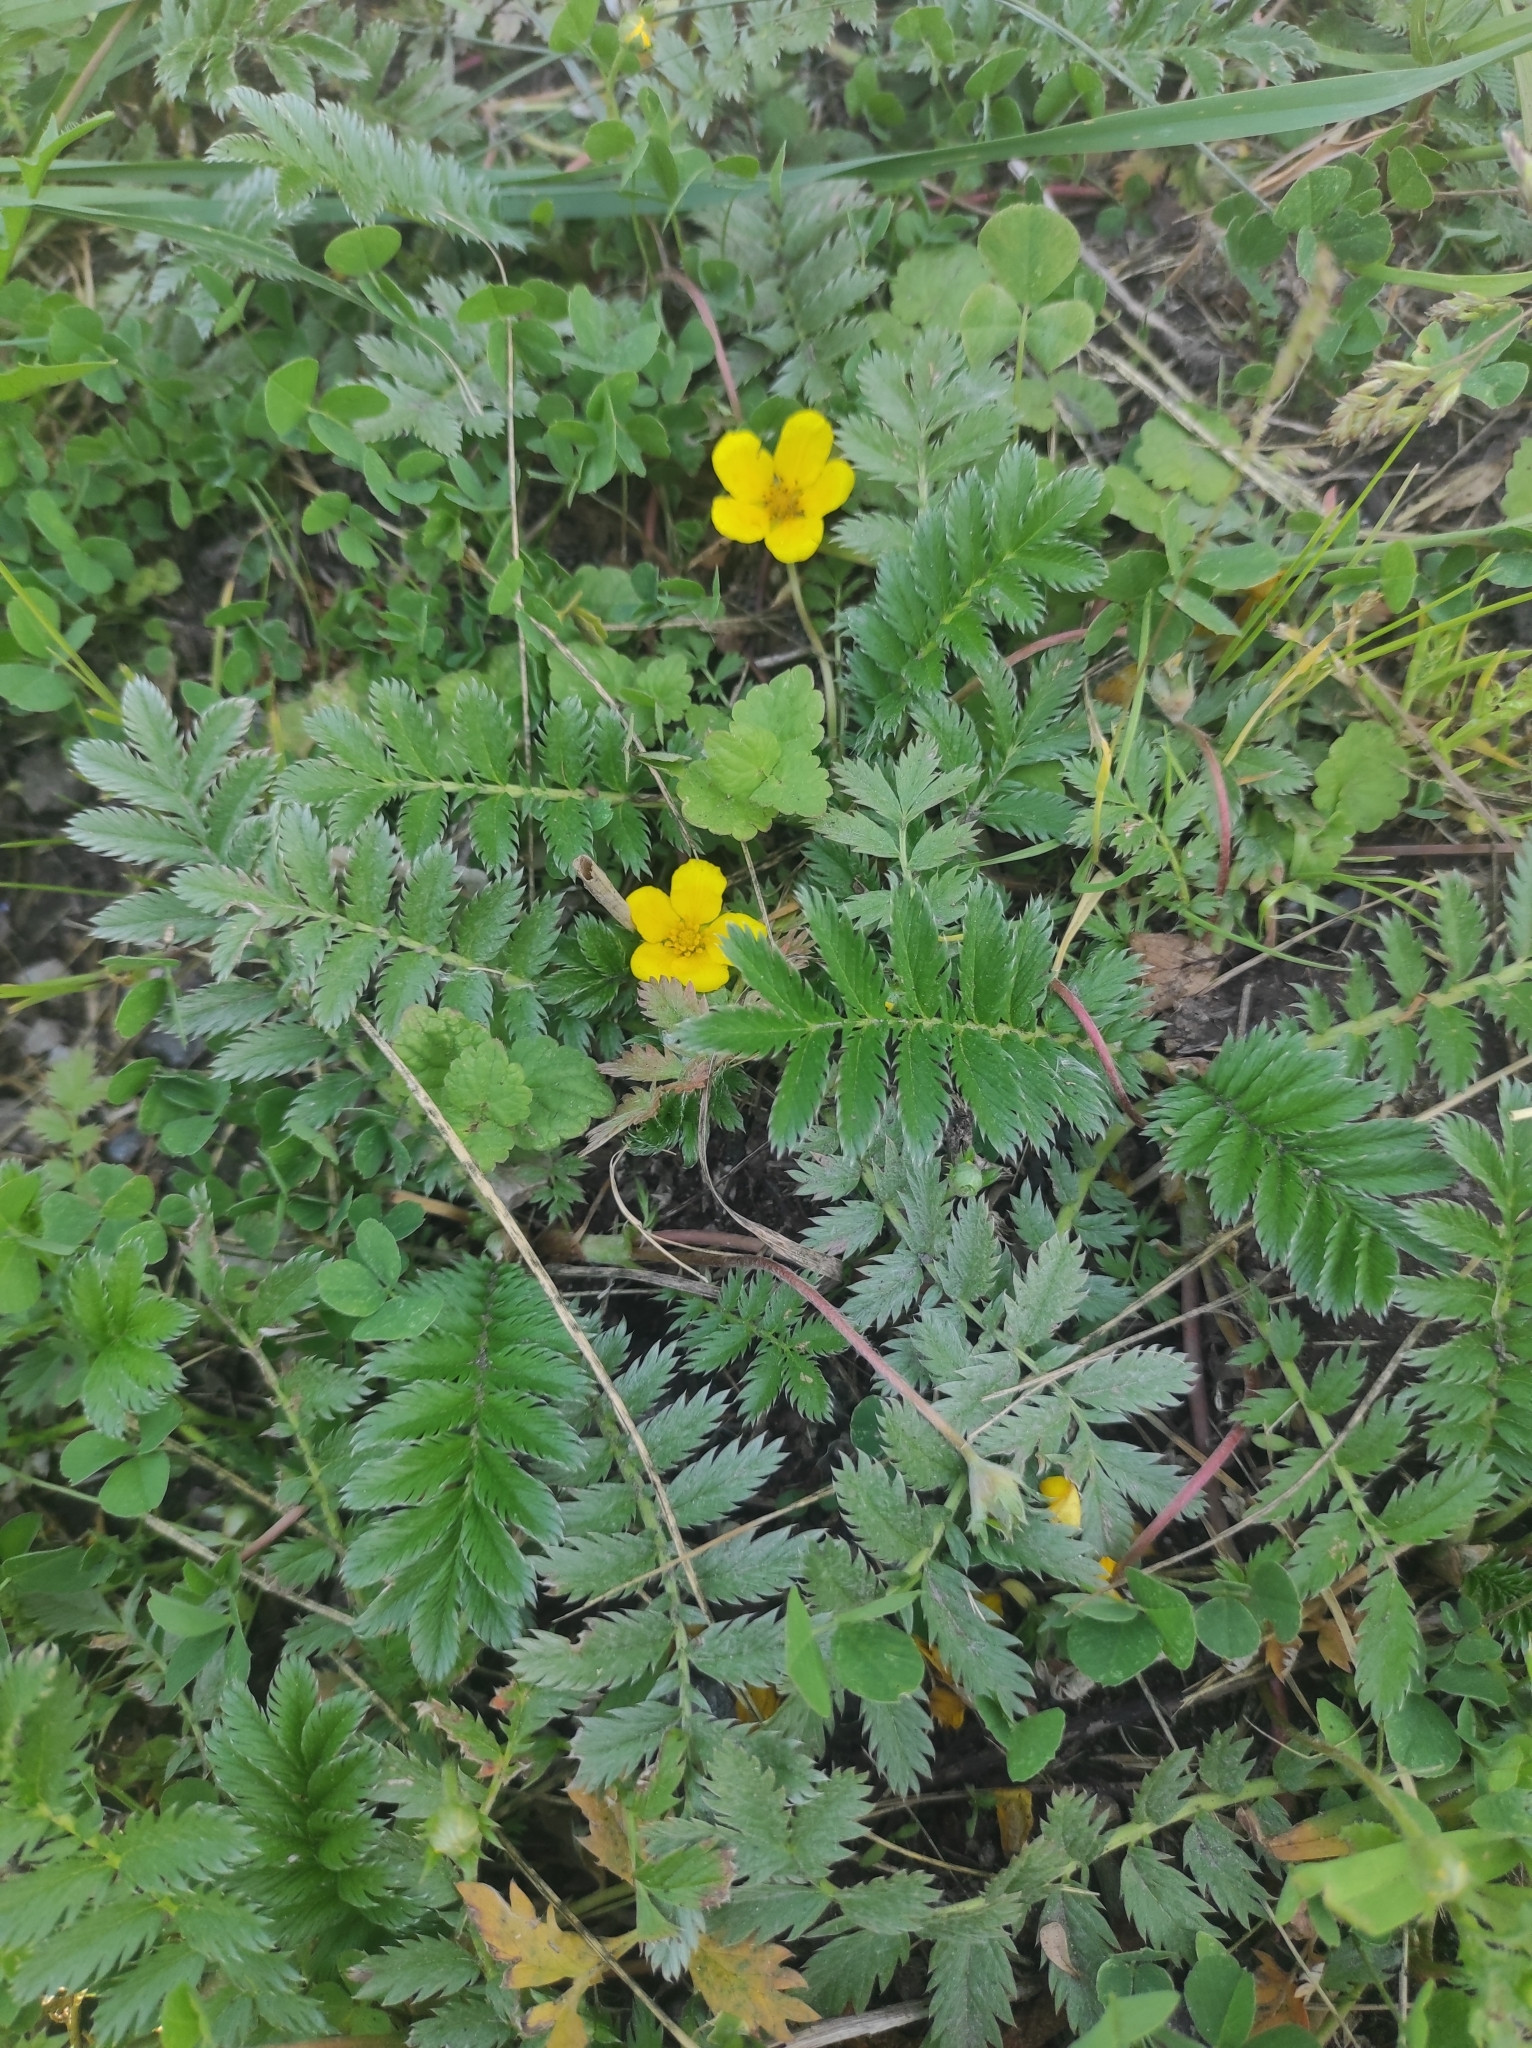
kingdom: Plantae
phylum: Tracheophyta
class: Magnoliopsida
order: Rosales
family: Rosaceae
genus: Argentina
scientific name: Argentina anserina
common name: Common silverweed
